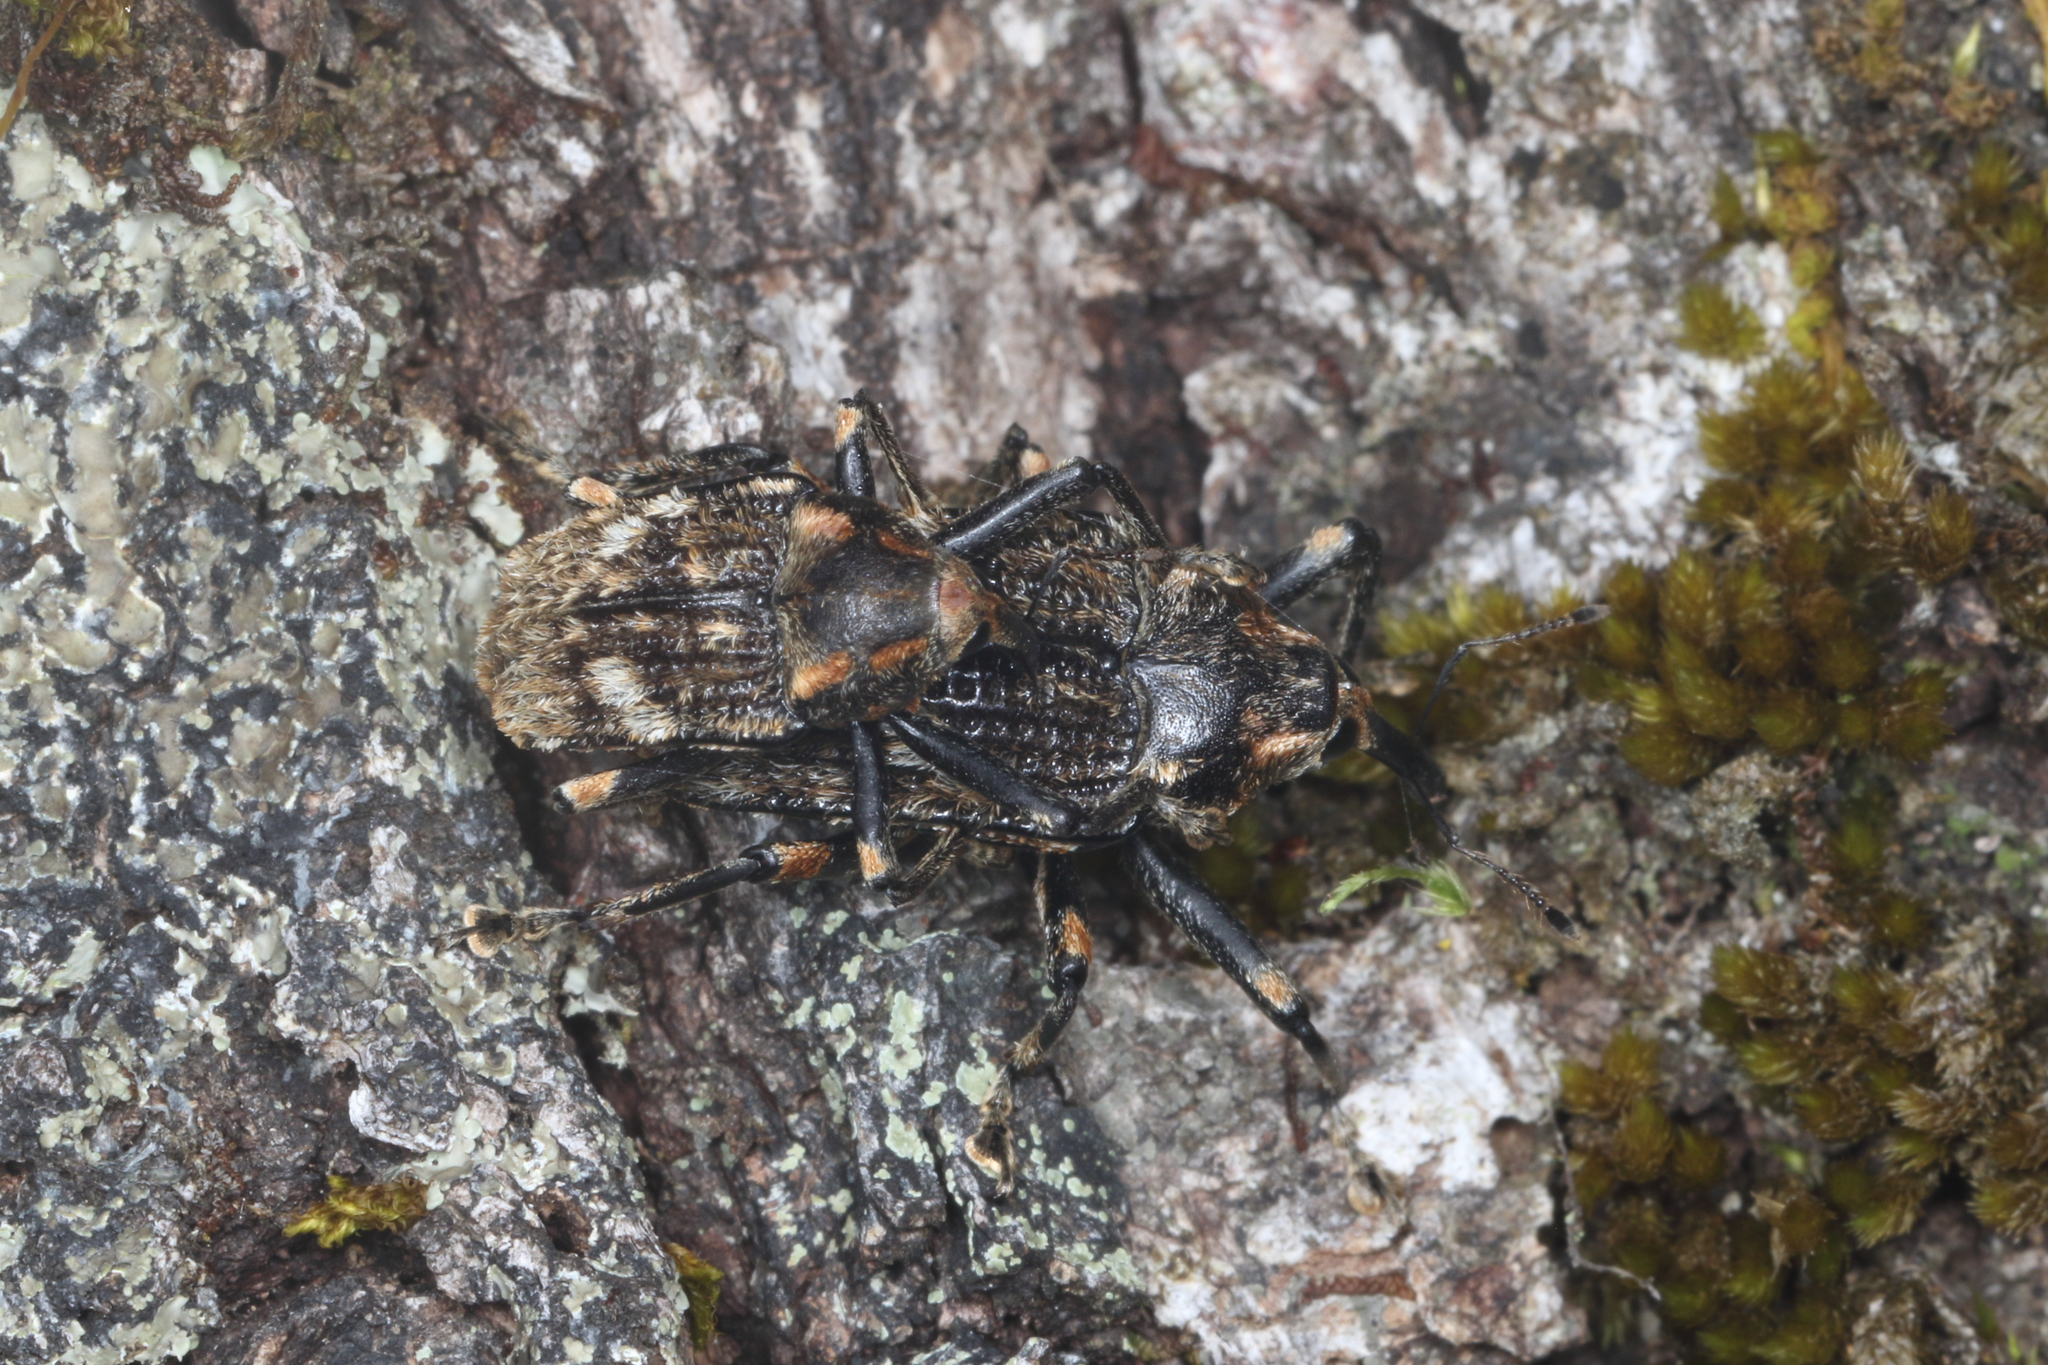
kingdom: Animalia
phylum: Arthropoda
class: Insecta
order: Coleoptera
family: Curculionidae
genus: Rhynchodes
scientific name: Rhynchodes ursus
